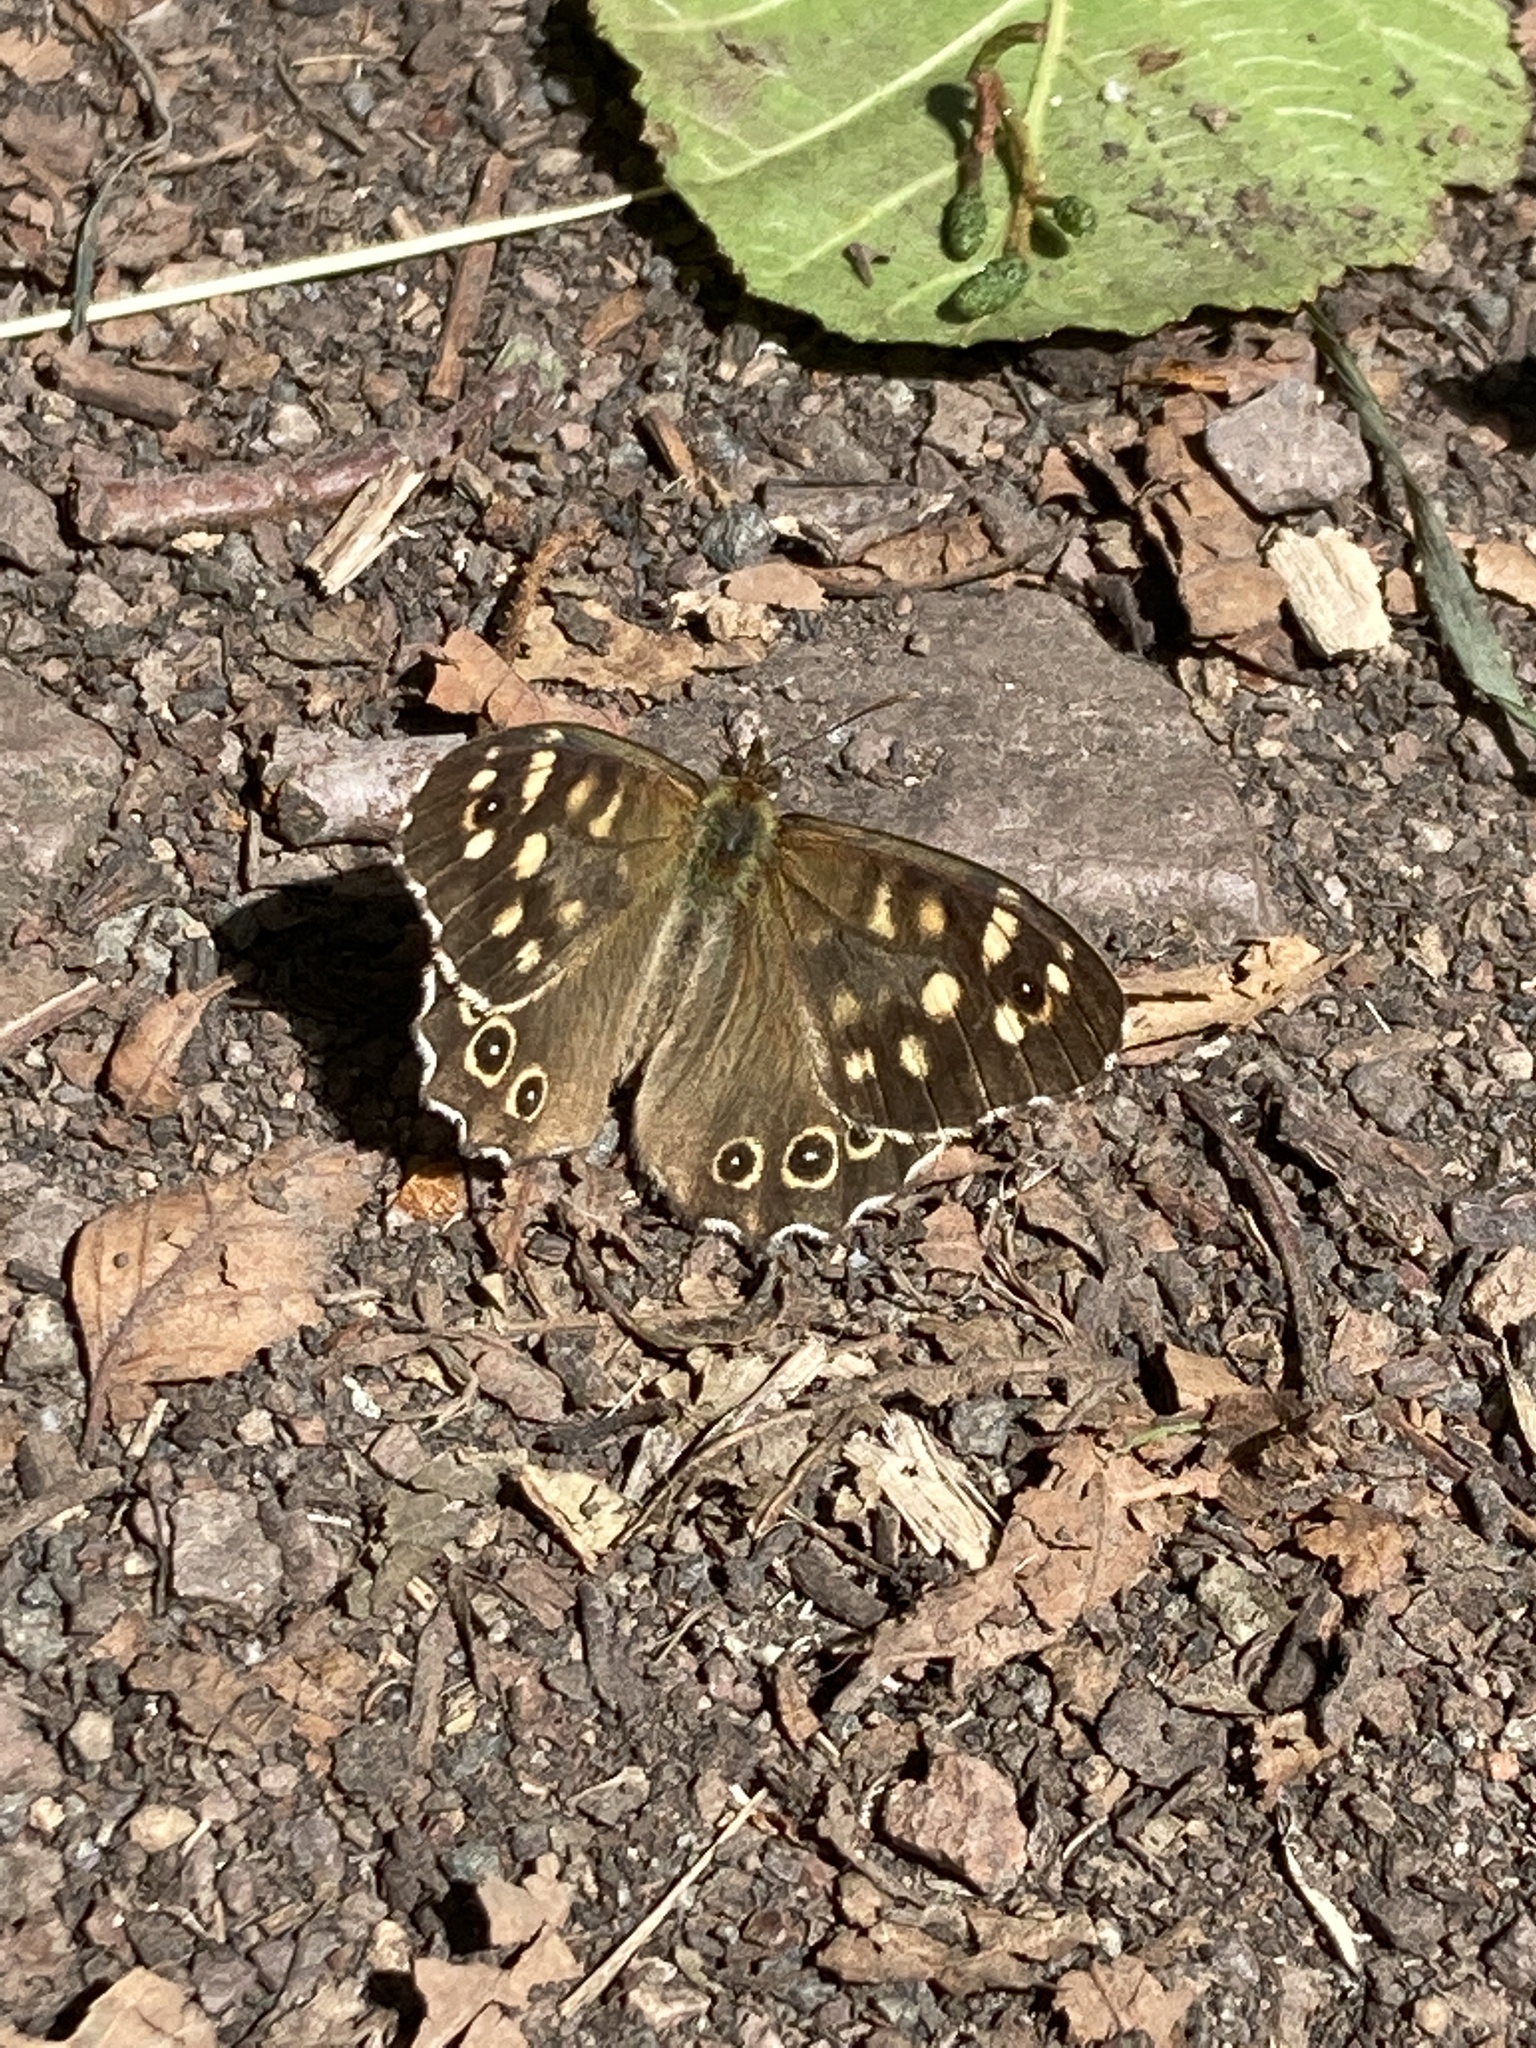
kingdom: Animalia
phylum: Arthropoda
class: Insecta
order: Lepidoptera
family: Nymphalidae
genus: Pararge
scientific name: Pararge aegeria
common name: Speckled wood
